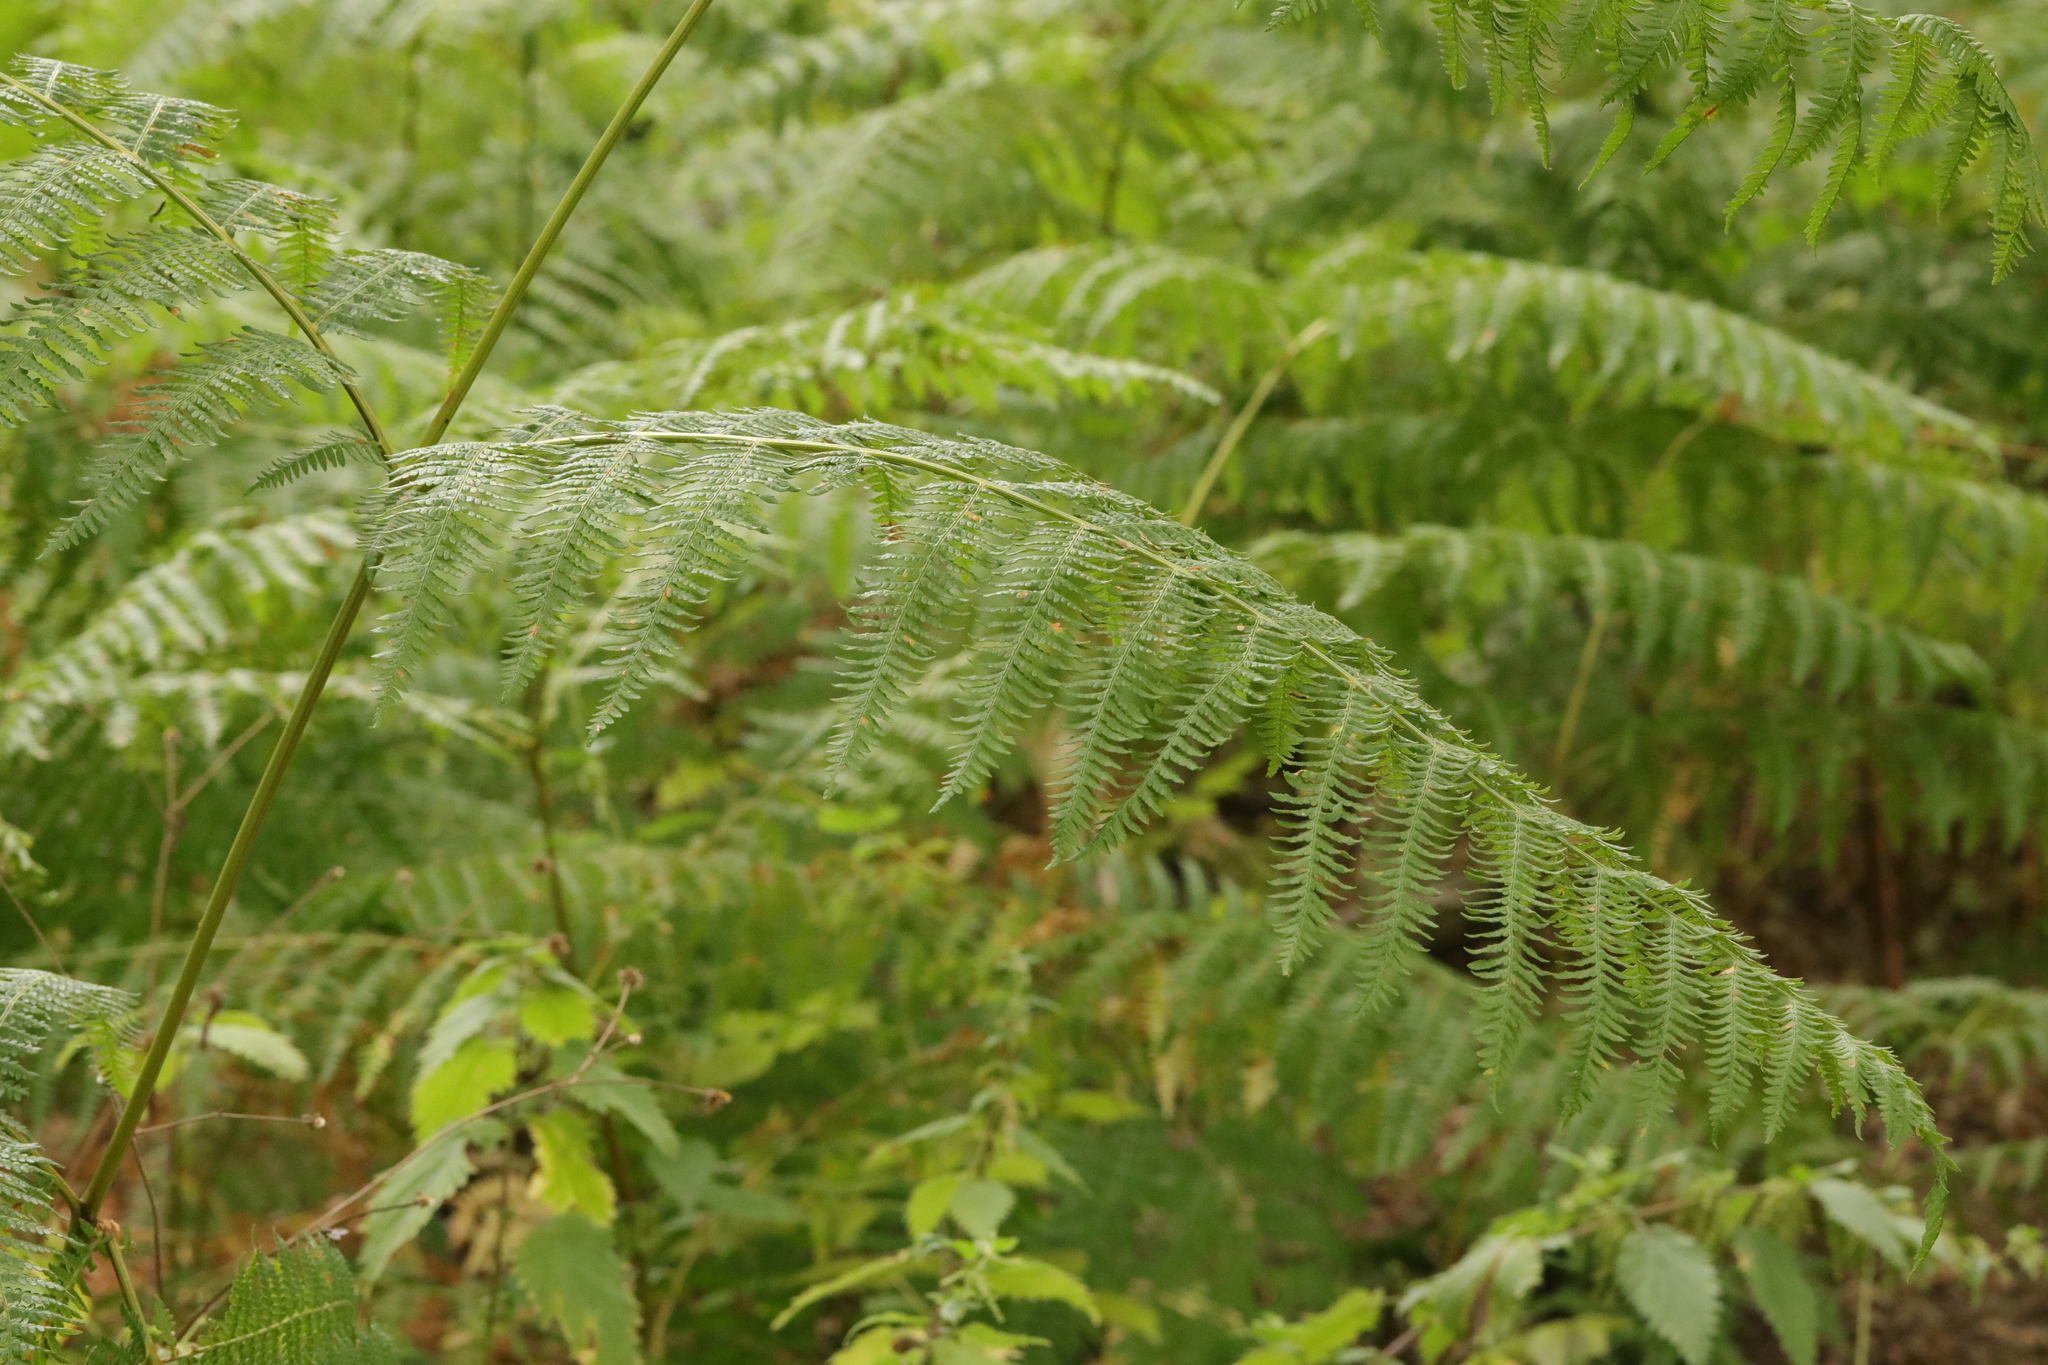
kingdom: Plantae
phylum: Tracheophyta
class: Polypodiopsida
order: Polypodiales
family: Dennstaedtiaceae
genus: Pteridium
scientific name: Pteridium aquilinum
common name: Bracken
